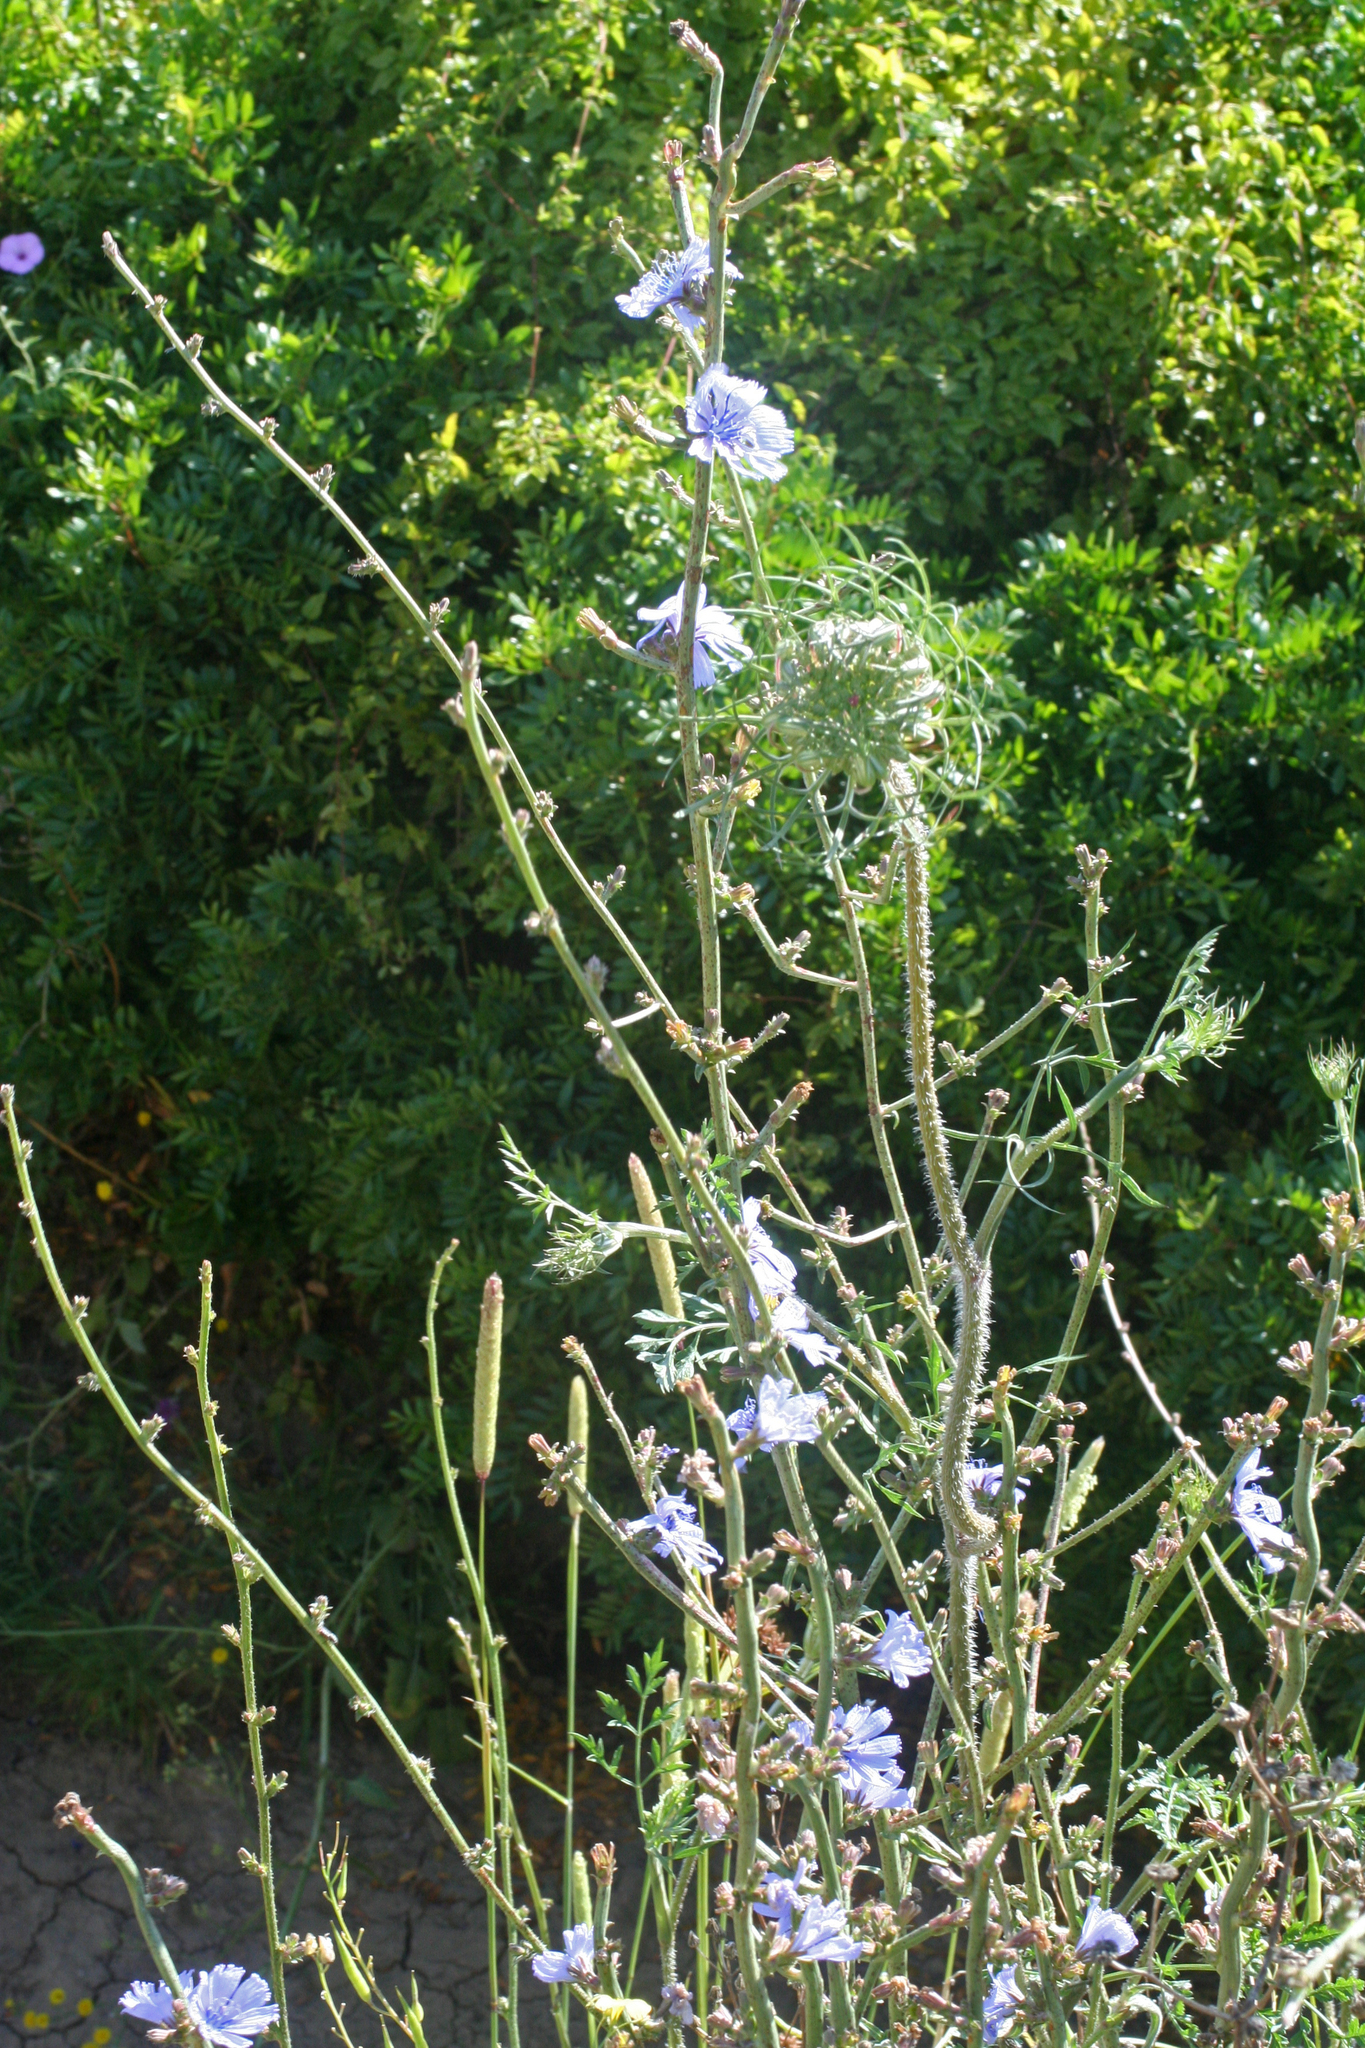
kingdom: Plantae
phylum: Tracheophyta
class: Magnoliopsida
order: Asterales
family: Asteraceae
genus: Cichorium
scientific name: Cichorium intybus
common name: Chicory
